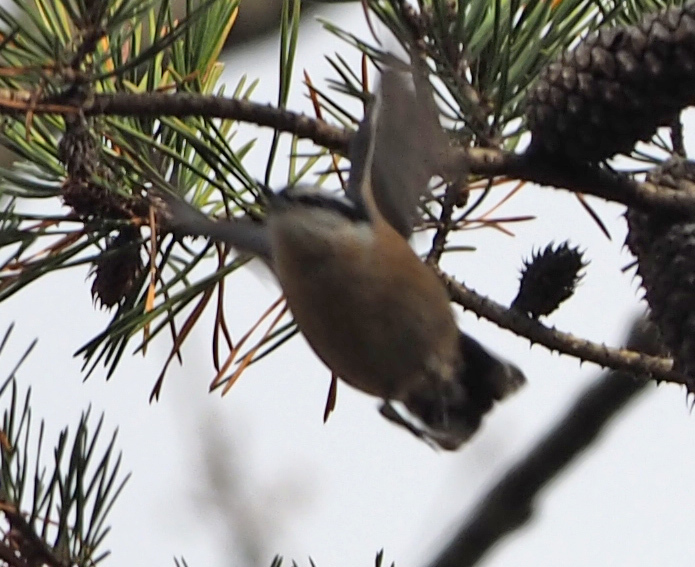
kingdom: Animalia
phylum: Chordata
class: Aves
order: Passeriformes
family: Sittidae
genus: Sitta
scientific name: Sitta canadensis
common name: Red-breasted nuthatch
